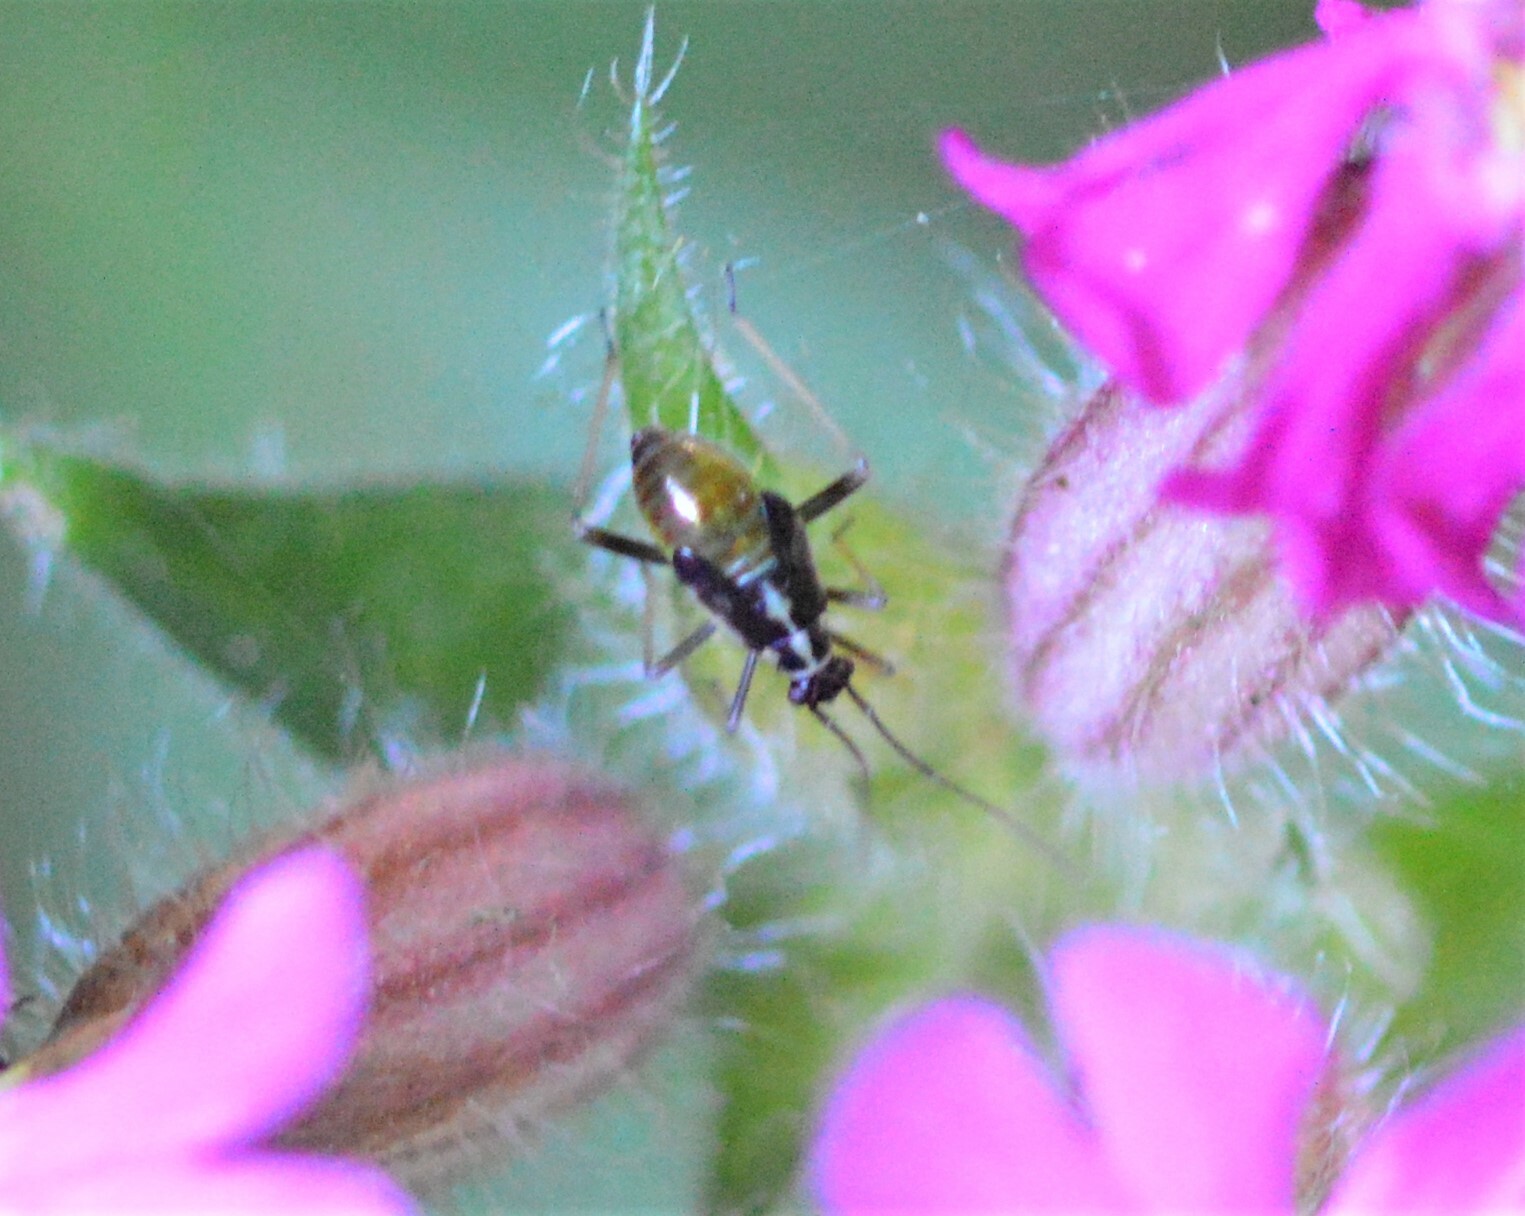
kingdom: Animalia
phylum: Arthropoda
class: Insecta
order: Hemiptera
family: Miridae
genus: Grypocoris
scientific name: Grypocoris stysi
